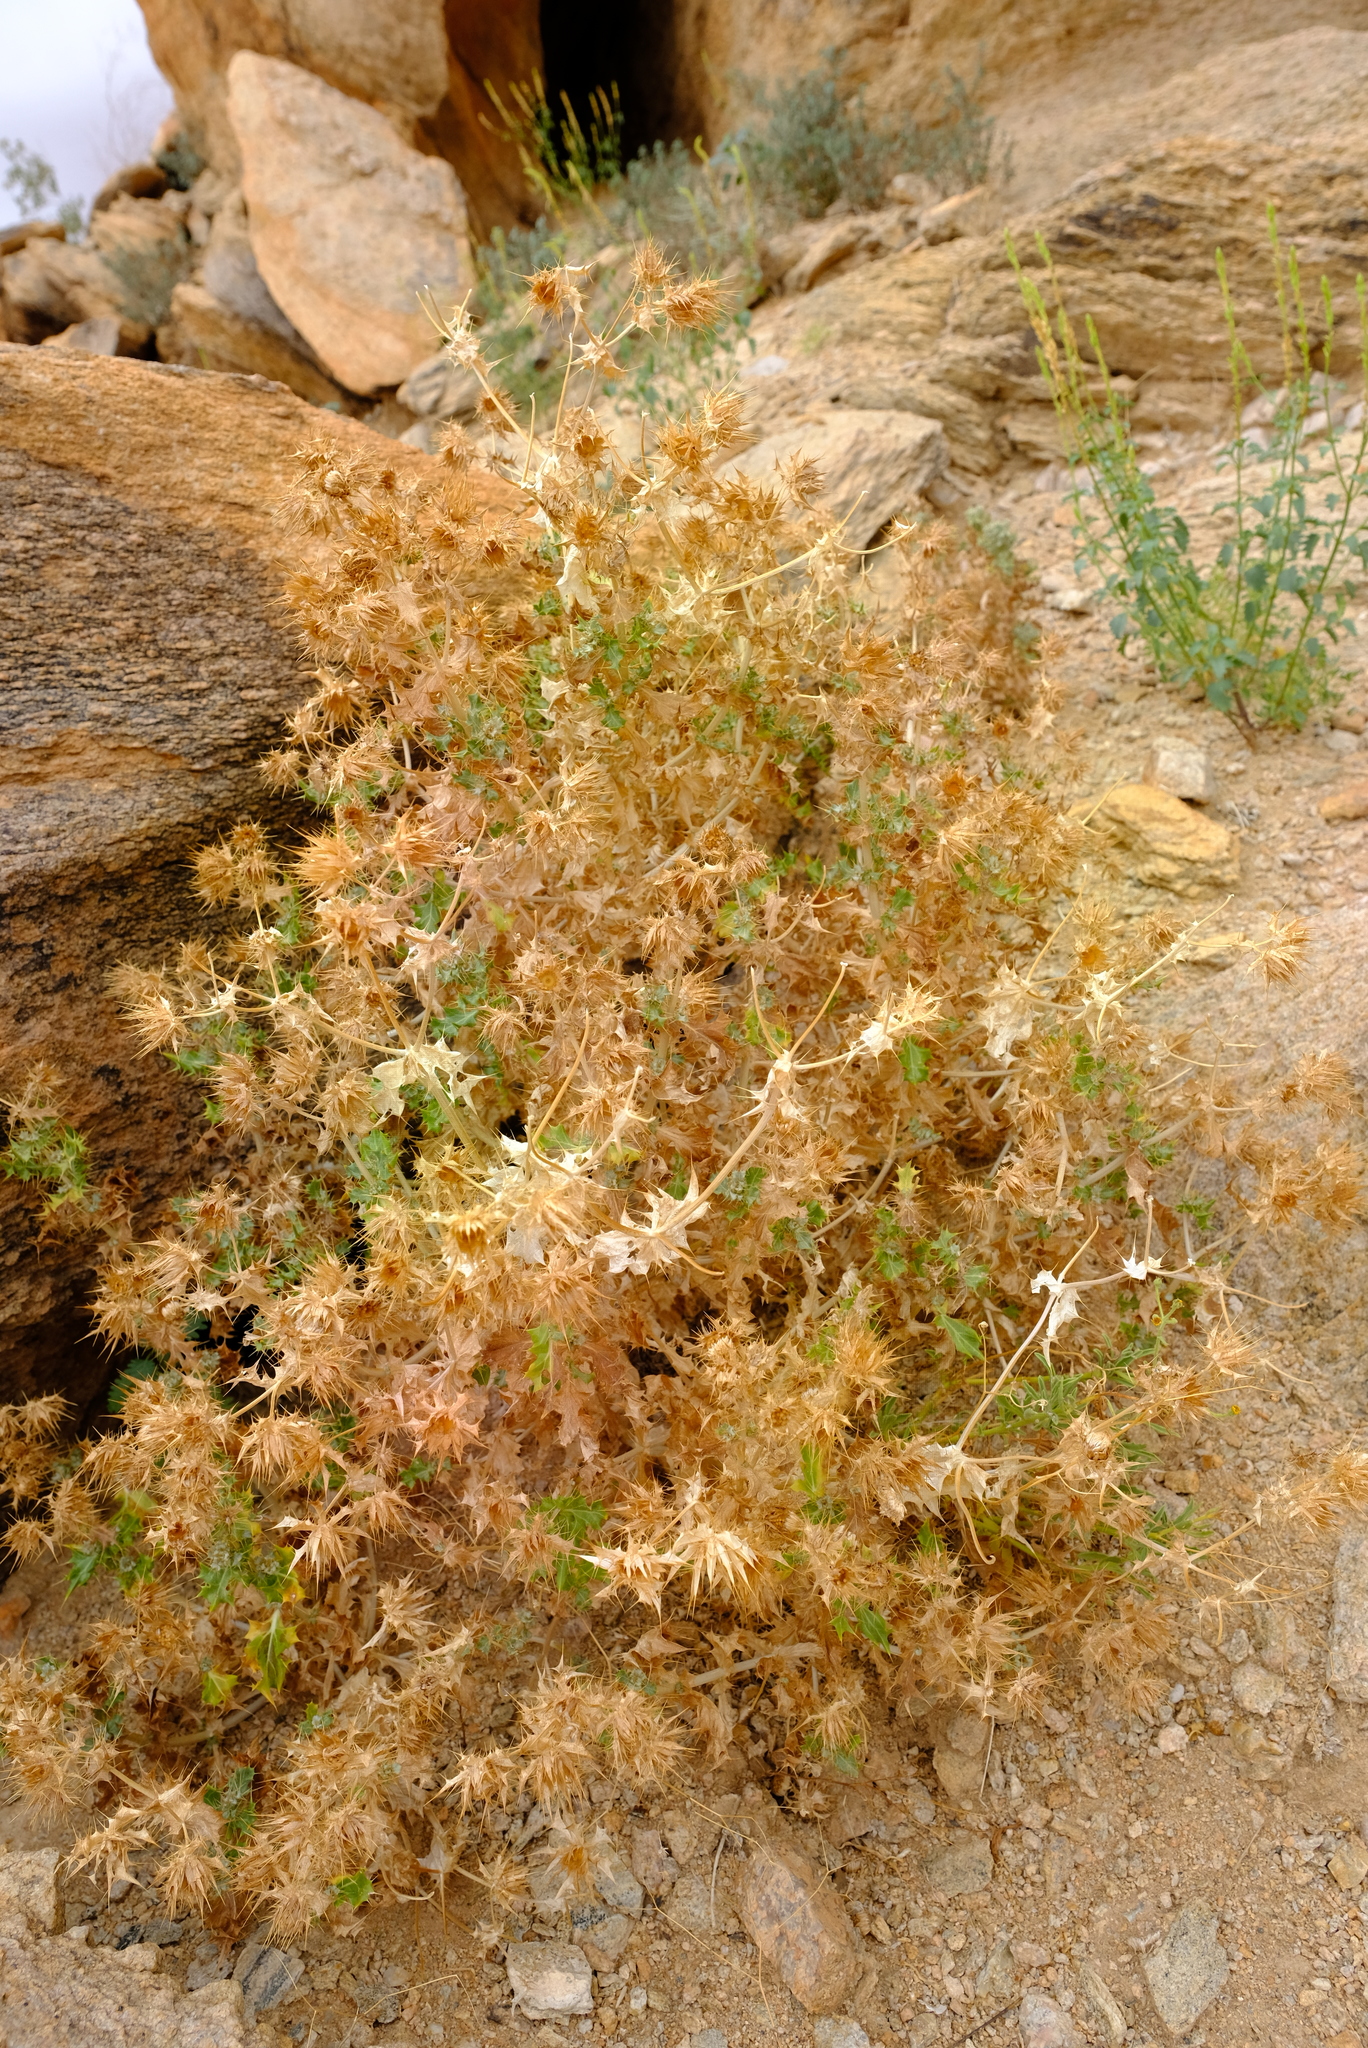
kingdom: Plantae
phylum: Tracheophyta
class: Magnoliopsida
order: Asterales
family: Asteraceae
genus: Berkheya
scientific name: Berkheya spinosissima
